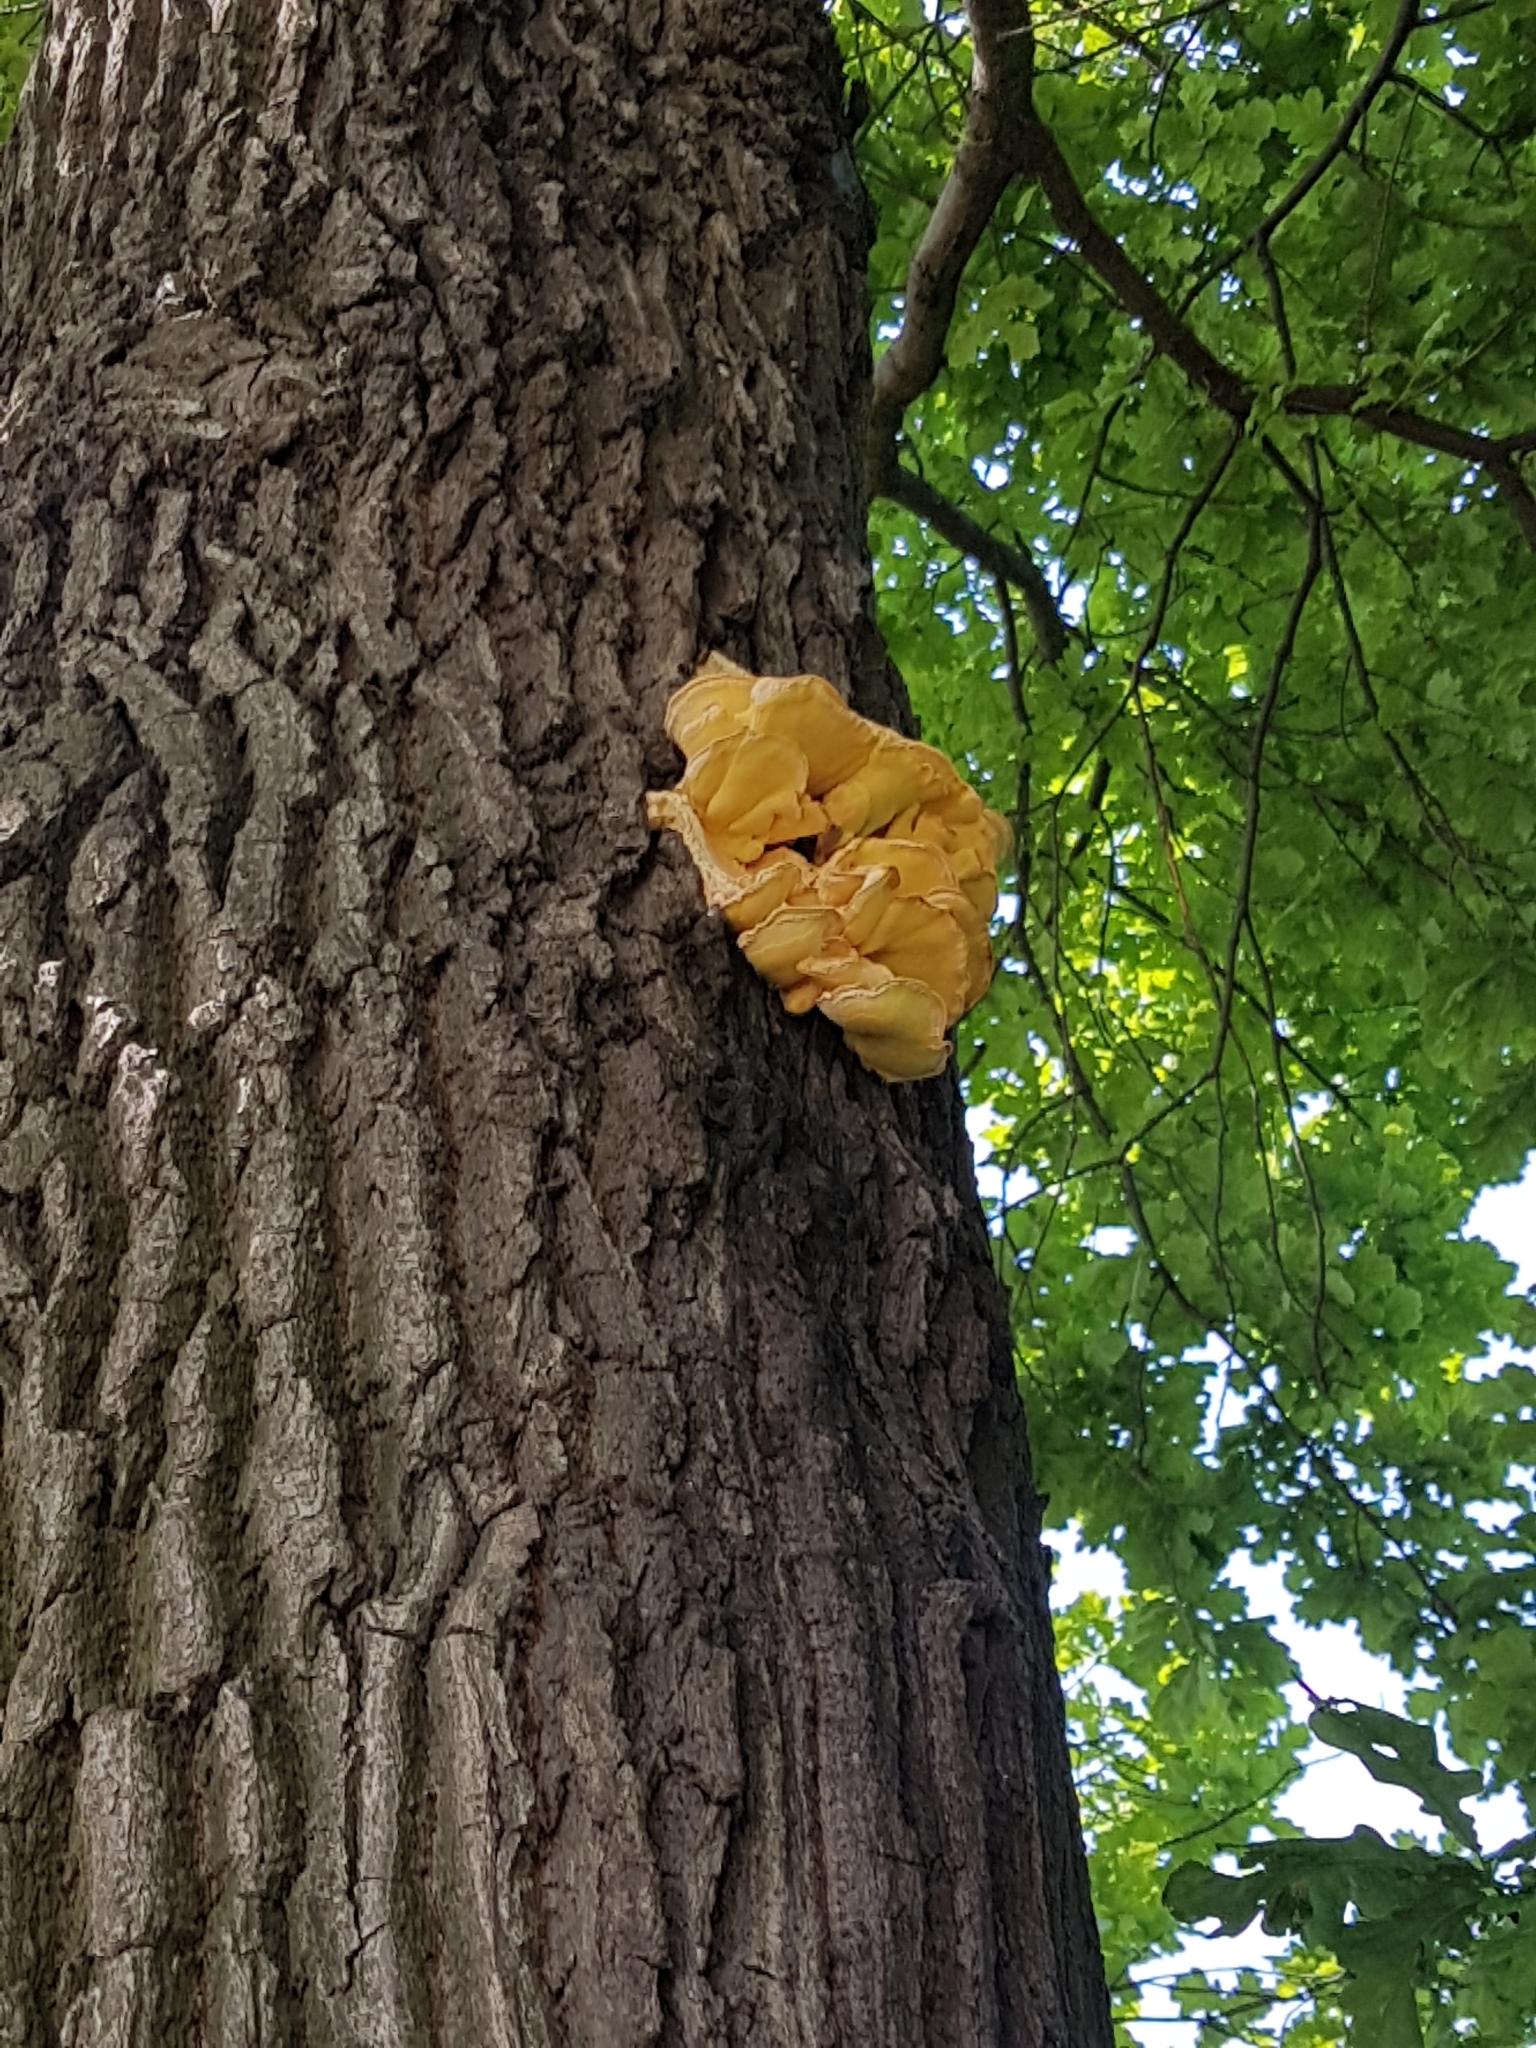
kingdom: Fungi
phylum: Basidiomycota
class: Agaricomycetes
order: Polyporales
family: Laetiporaceae
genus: Laetiporus
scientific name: Laetiporus sulphureus
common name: Chicken of the woods
